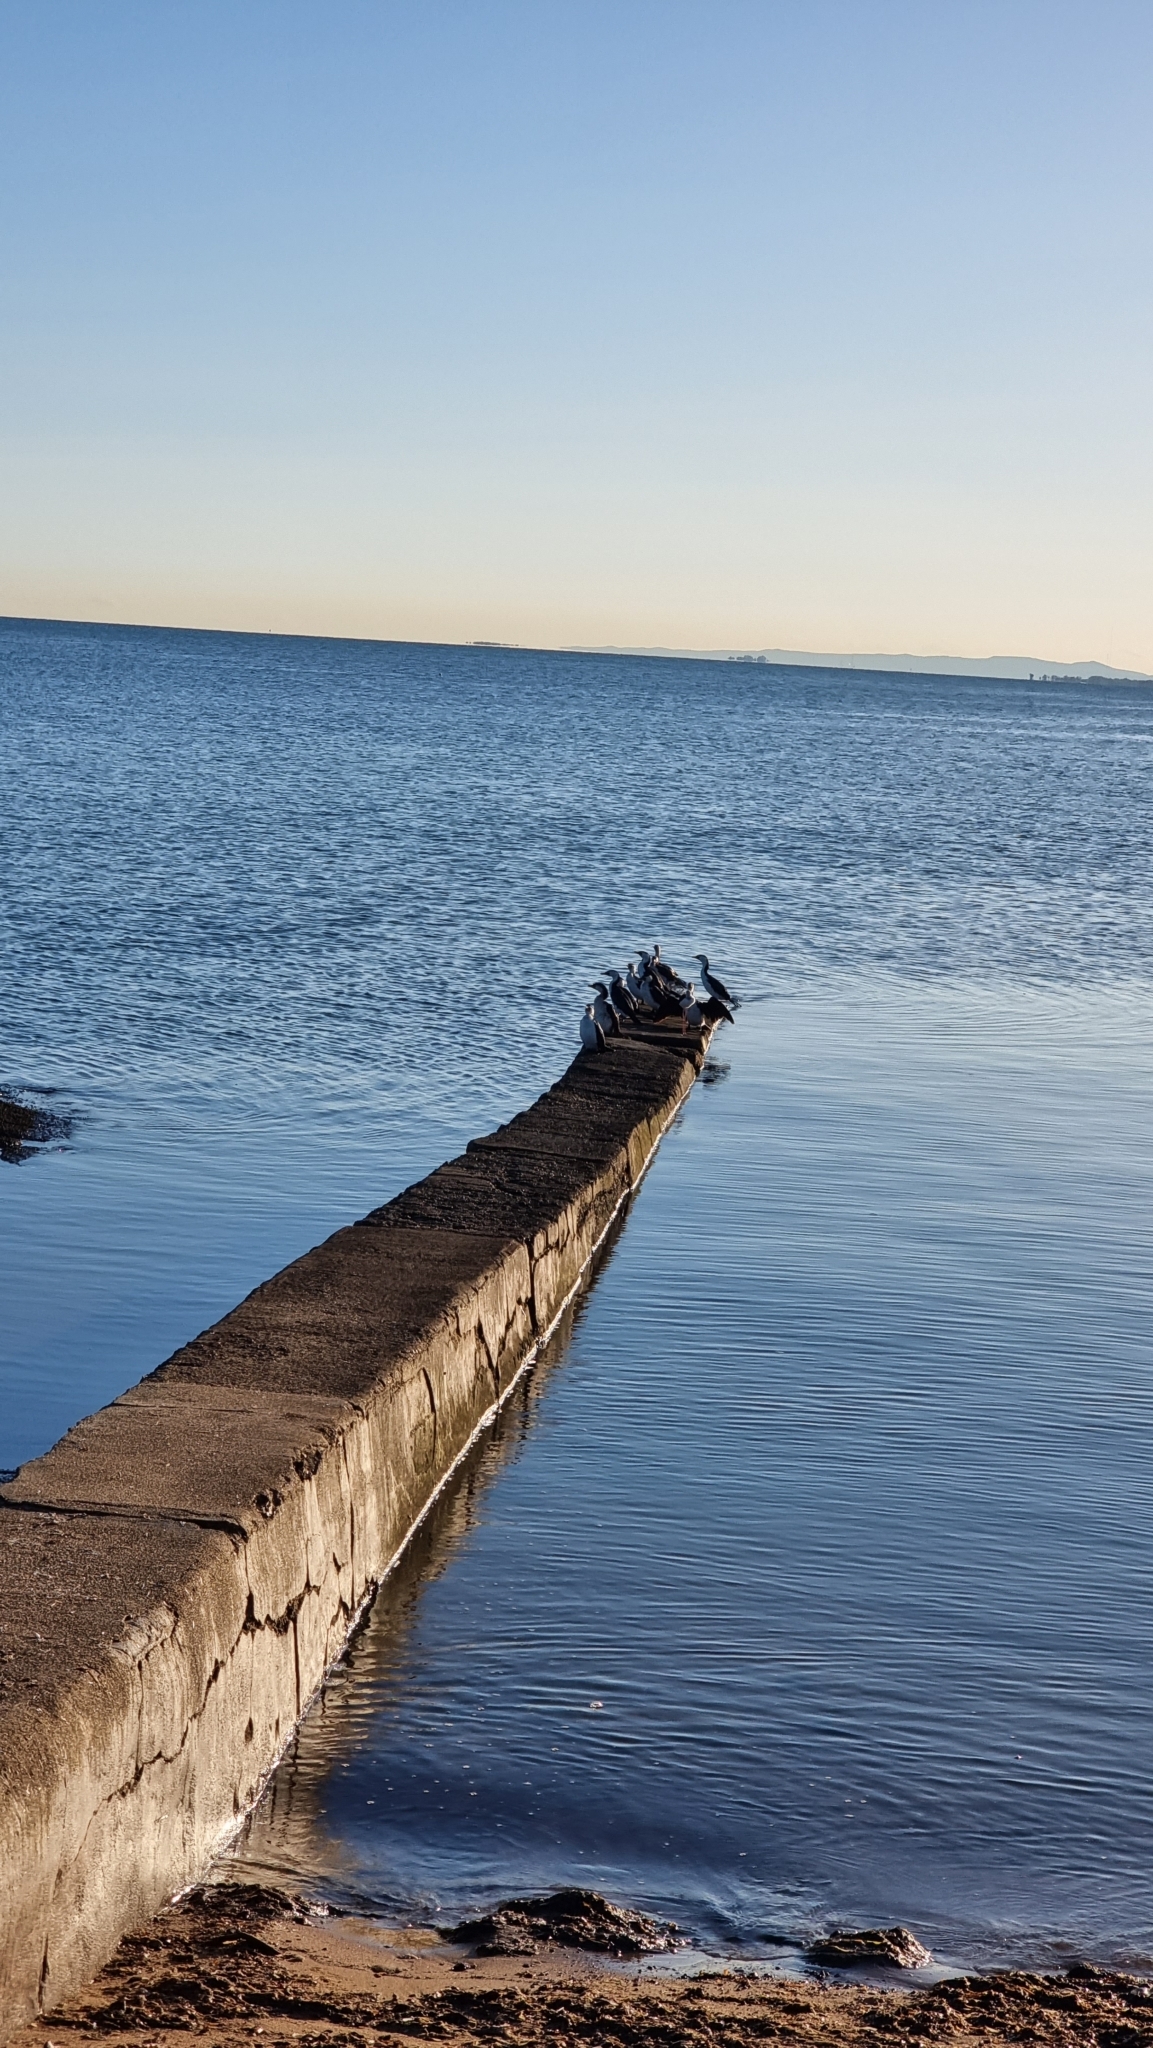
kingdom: Animalia
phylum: Chordata
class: Aves
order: Suliformes
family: Phalacrocoracidae
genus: Microcarbo
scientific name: Microcarbo melanoleucos
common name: Little pied cormorant
